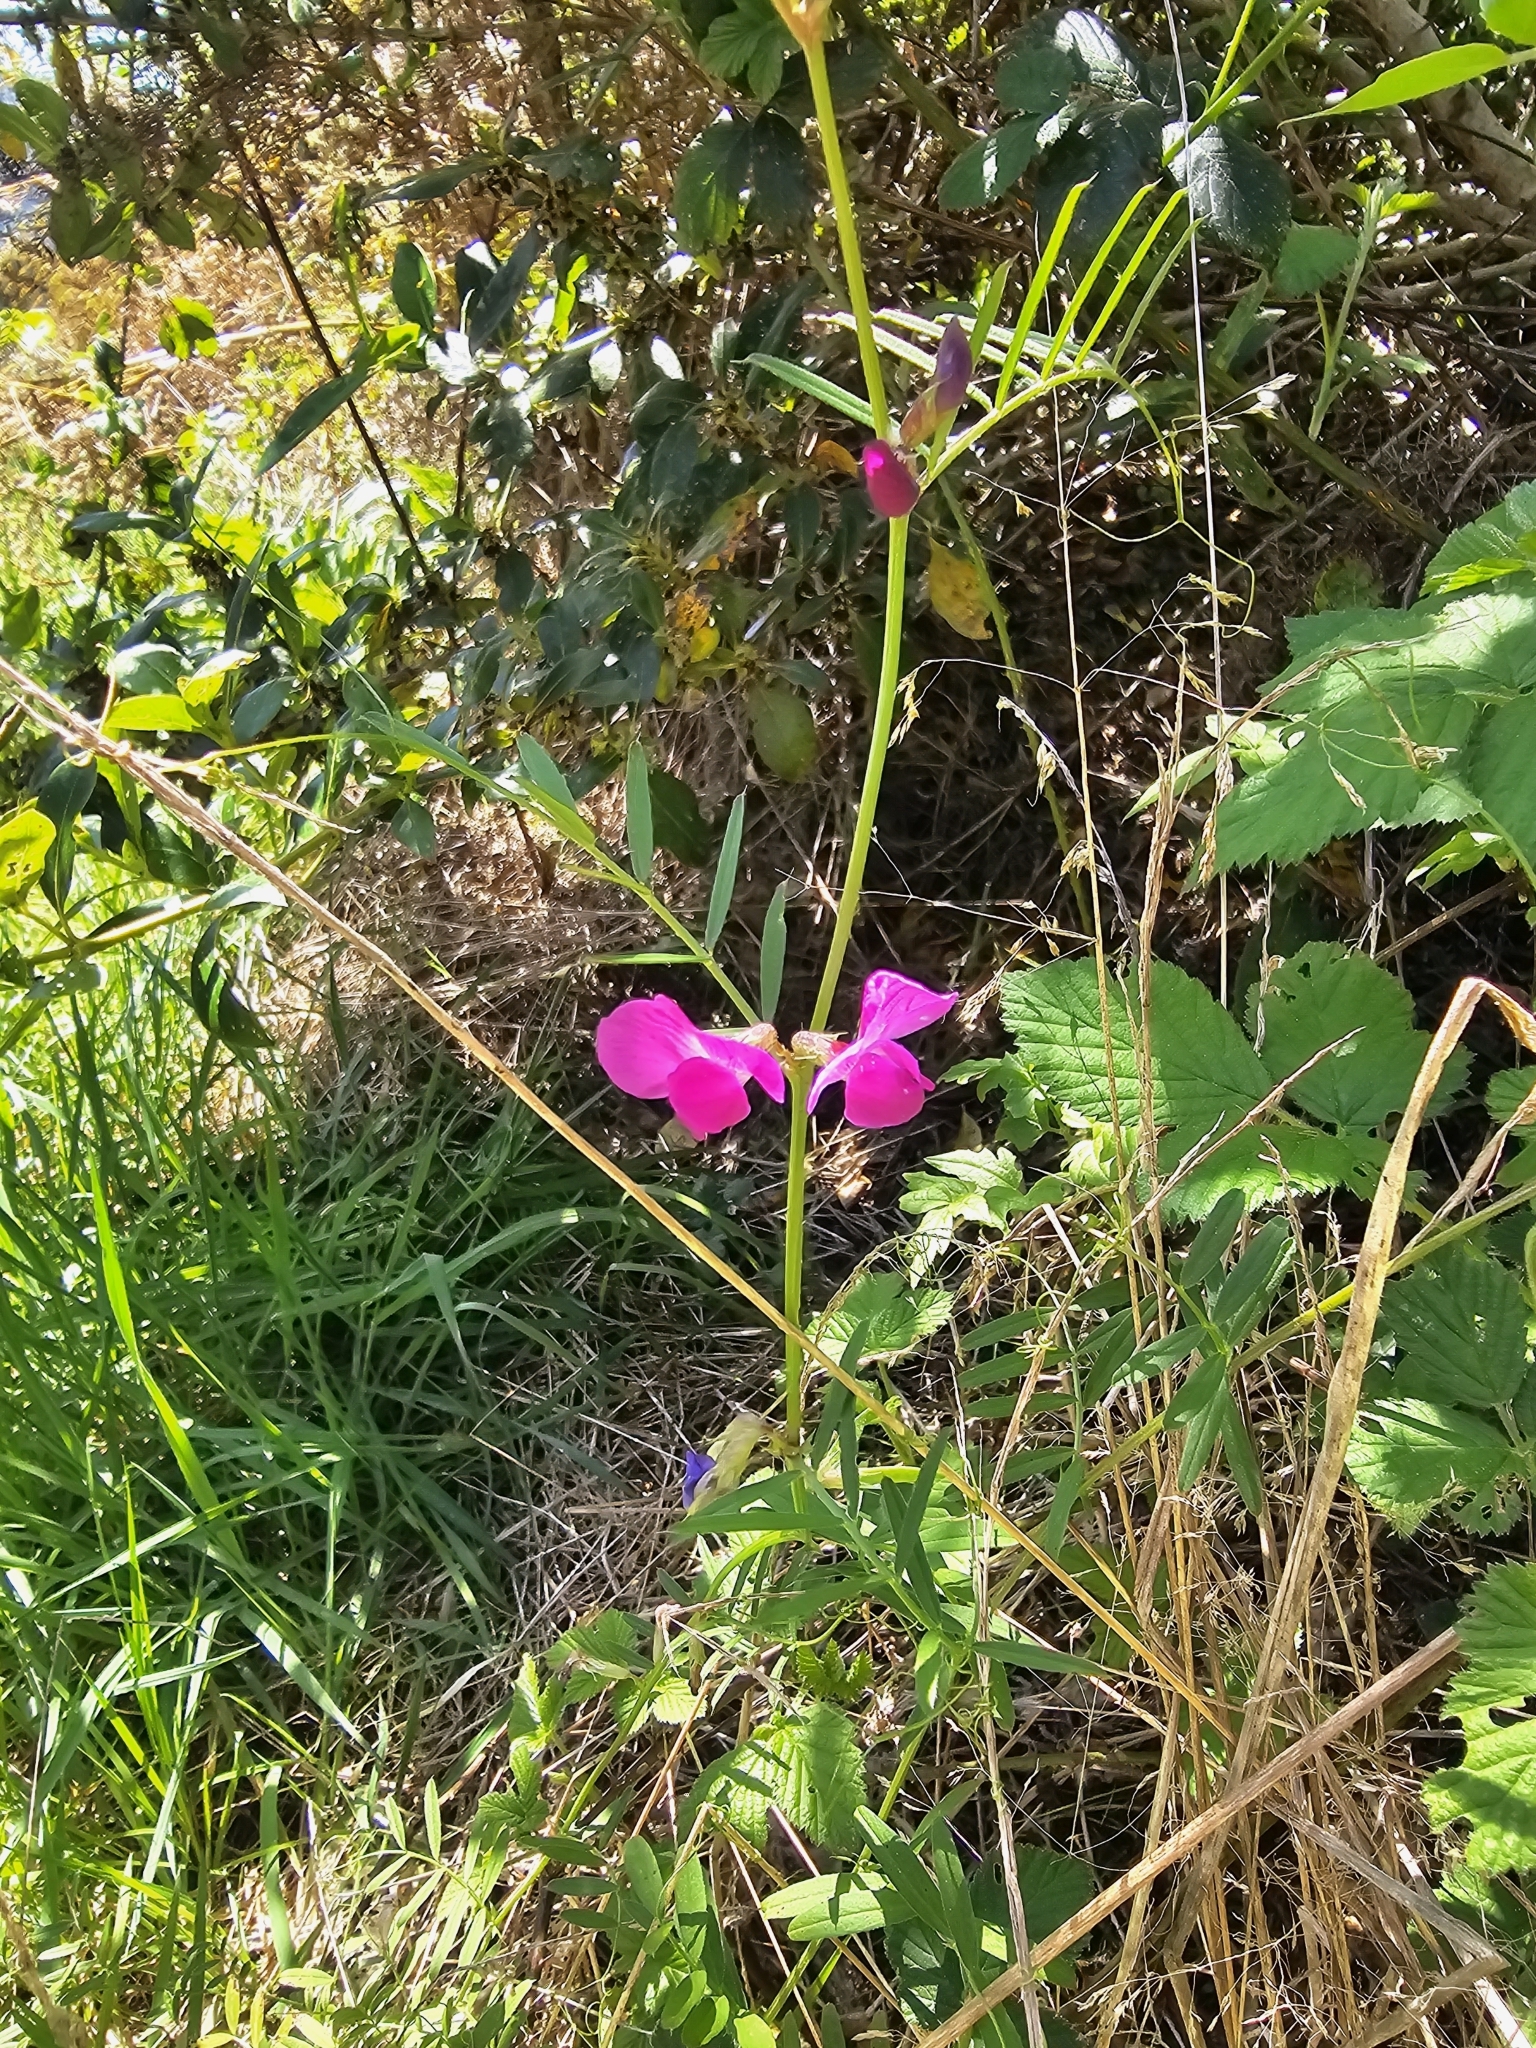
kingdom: Plantae
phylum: Tracheophyta
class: Magnoliopsida
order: Fabales
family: Fabaceae
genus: Vicia
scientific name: Vicia sativa
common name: Garden vetch
